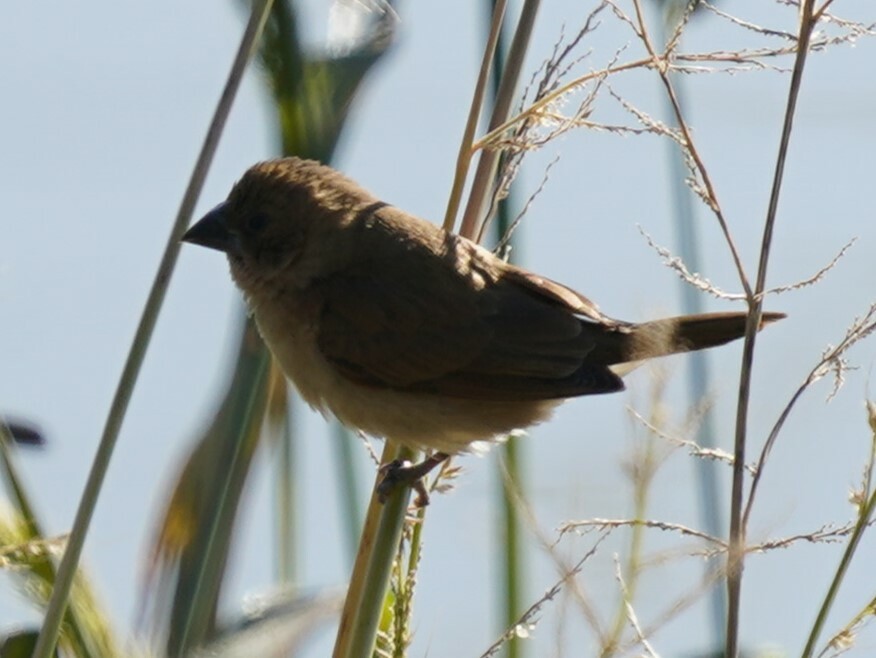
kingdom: Animalia
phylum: Chordata
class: Aves
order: Passeriformes
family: Estrildidae
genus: Lonchura
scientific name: Lonchura punctulata
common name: Scaly-breasted munia
